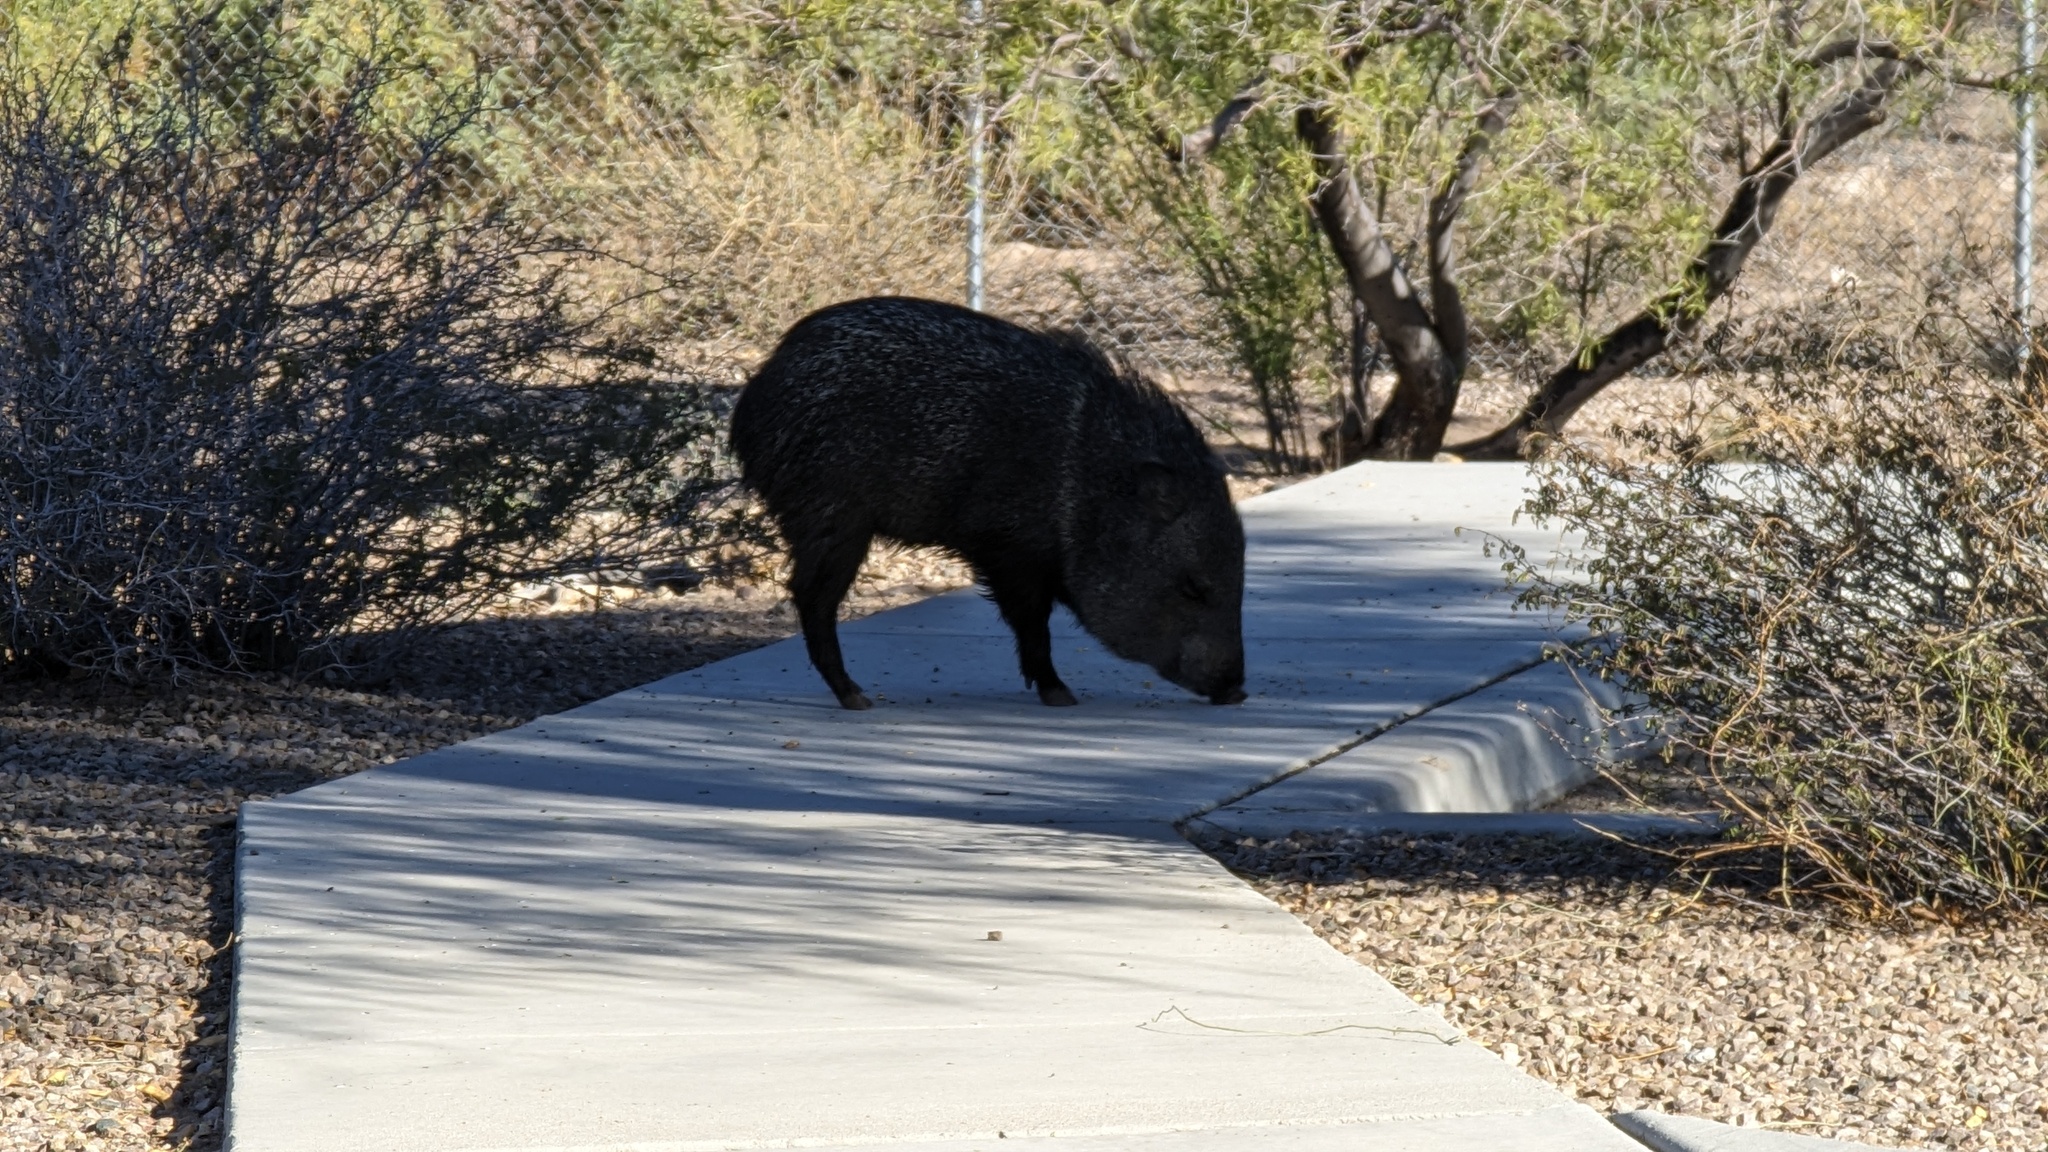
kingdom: Animalia
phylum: Chordata
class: Mammalia
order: Artiodactyla
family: Tayassuidae
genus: Pecari
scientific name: Pecari tajacu
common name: Collared peccary
